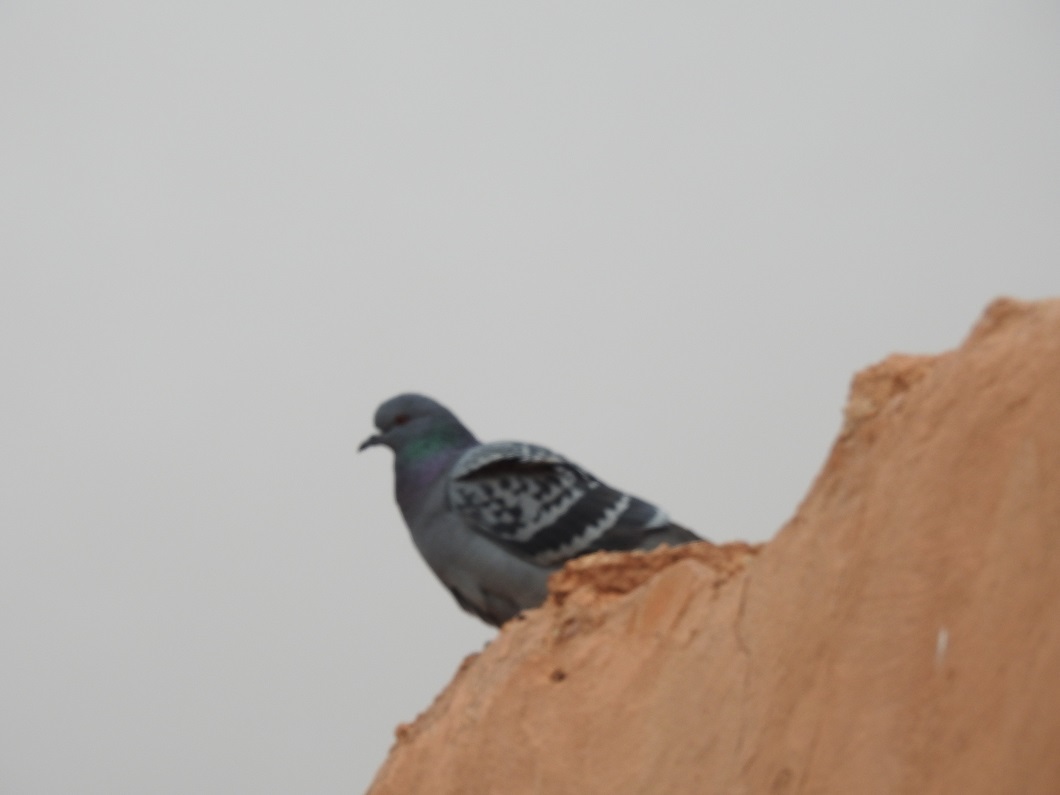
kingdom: Animalia
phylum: Chordata
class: Aves
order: Columbiformes
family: Columbidae
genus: Columba
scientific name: Columba livia
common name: Rock pigeon
